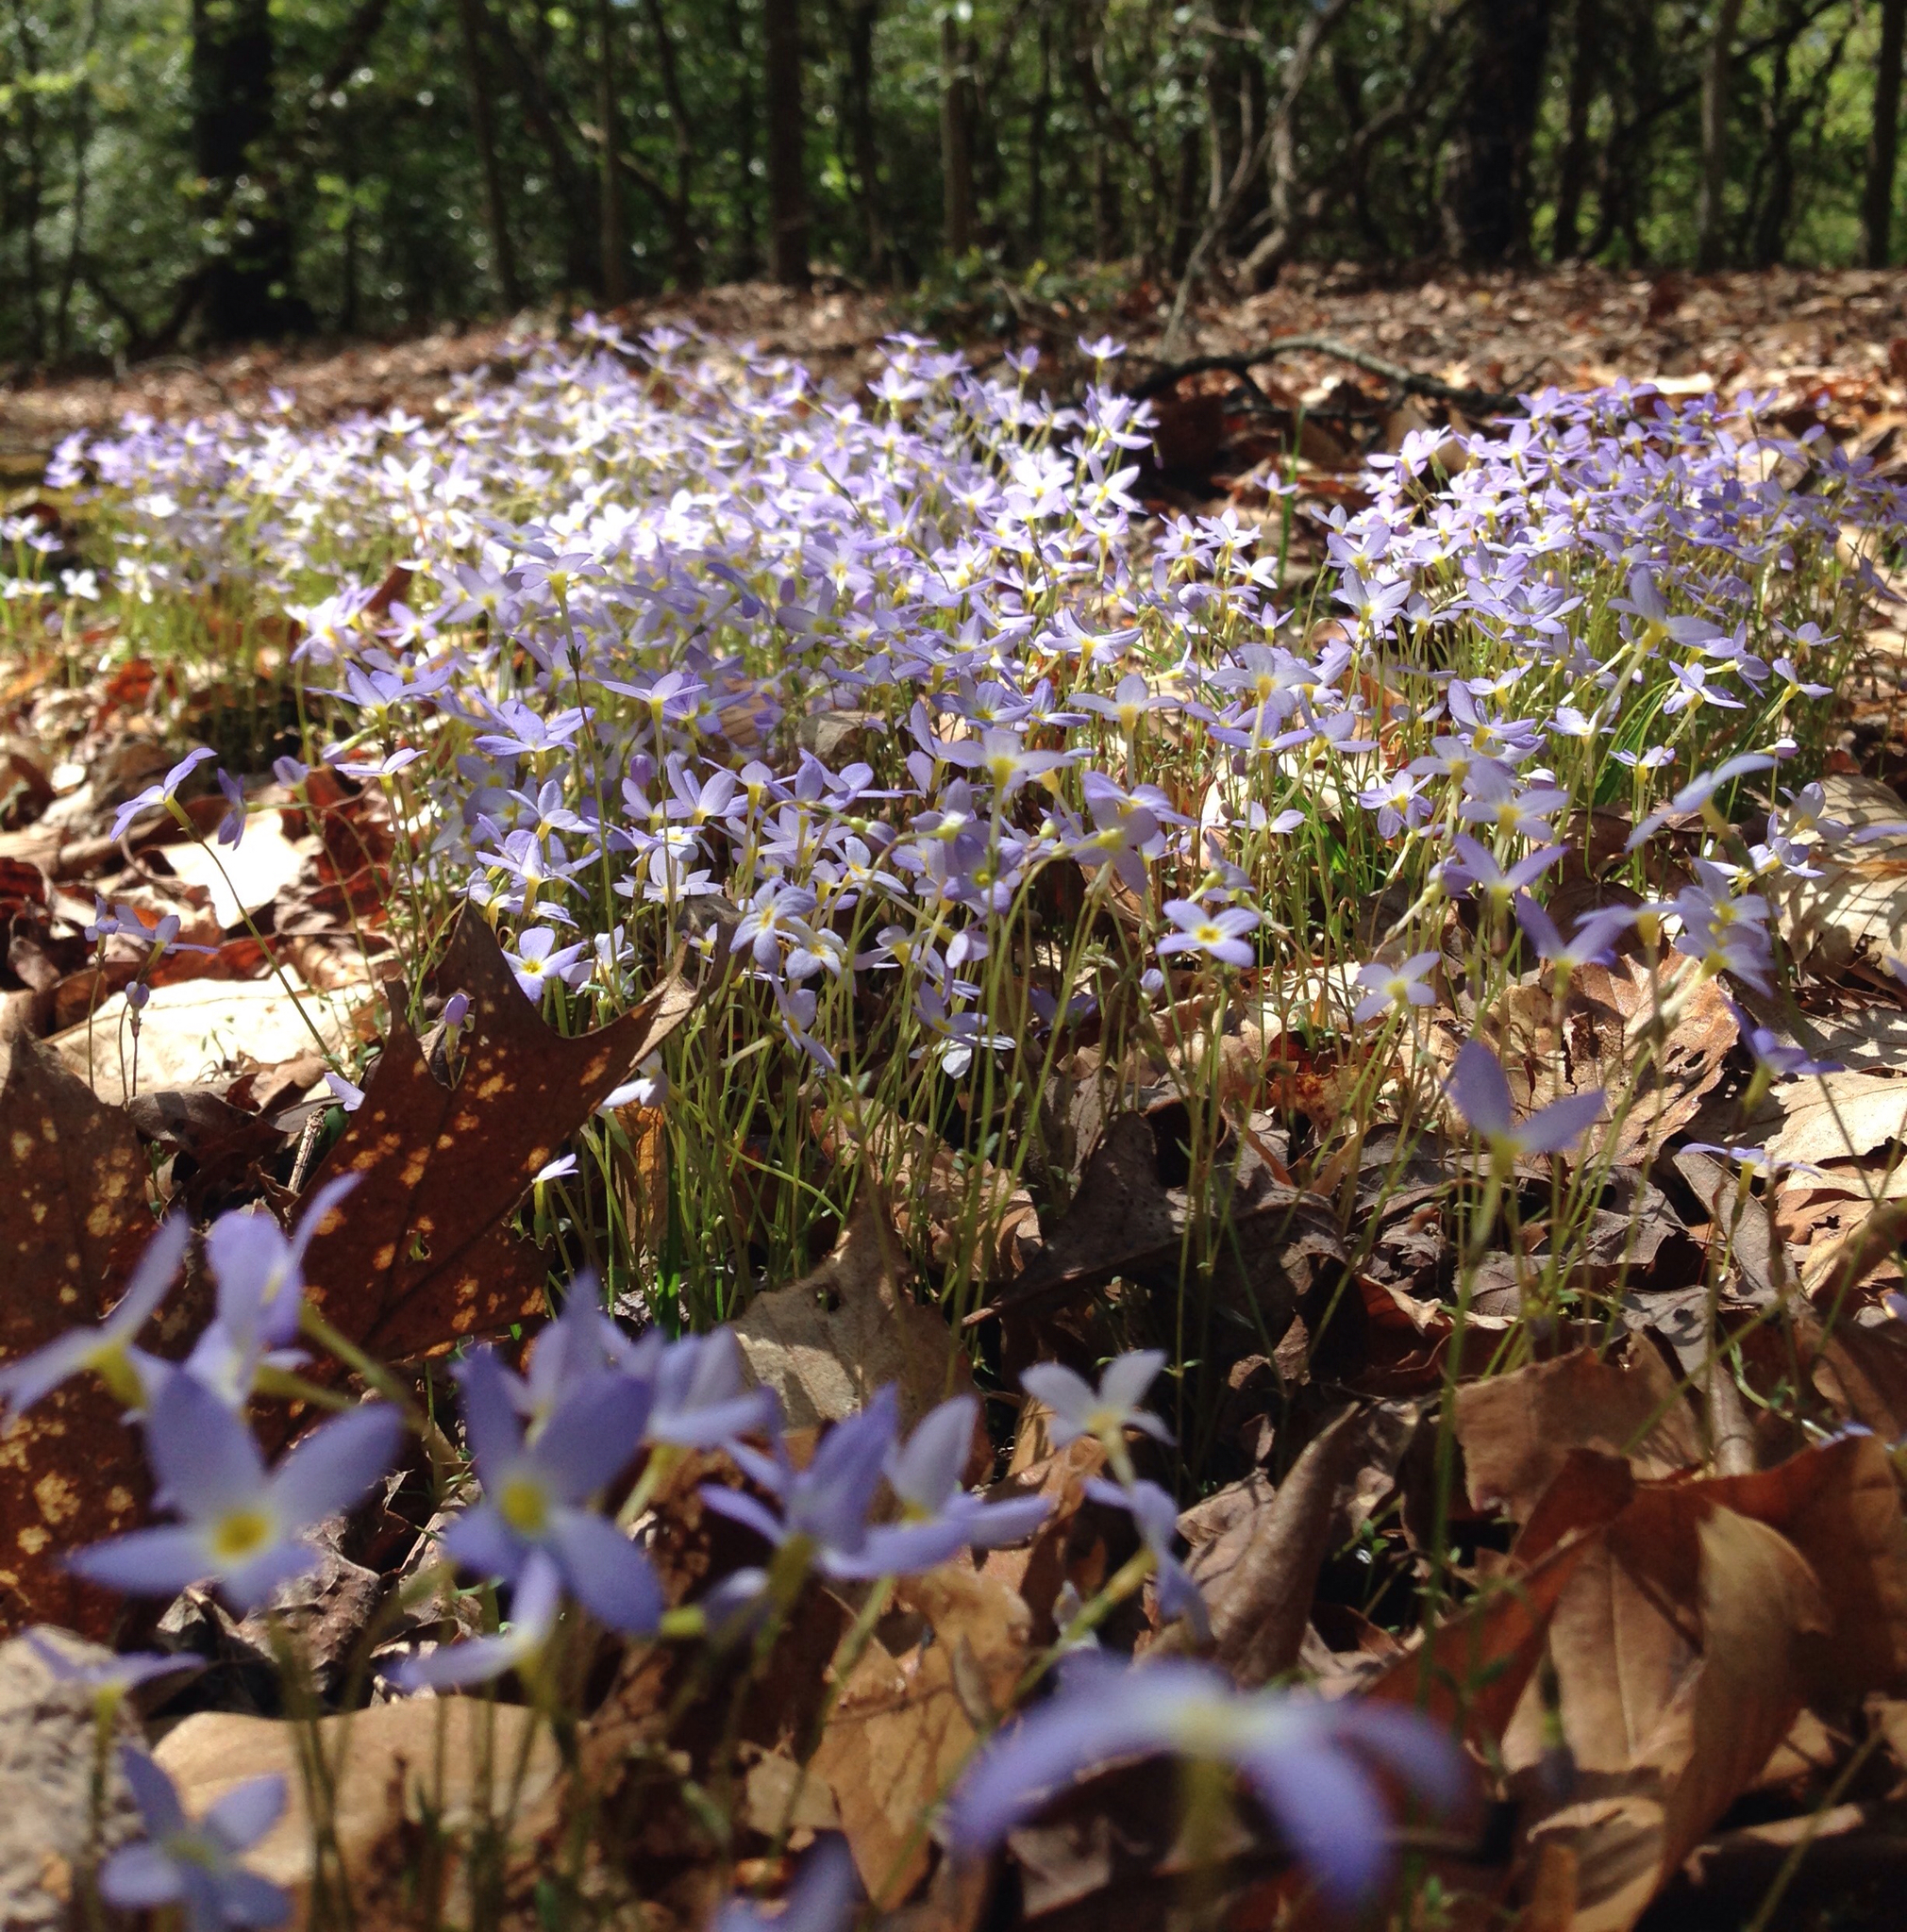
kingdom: Plantae
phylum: Tracheophyta
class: Magnoliopsida
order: Gentianales
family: Rubiaceae
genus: Houstonia
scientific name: Houstonia caerulea
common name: Bluets
